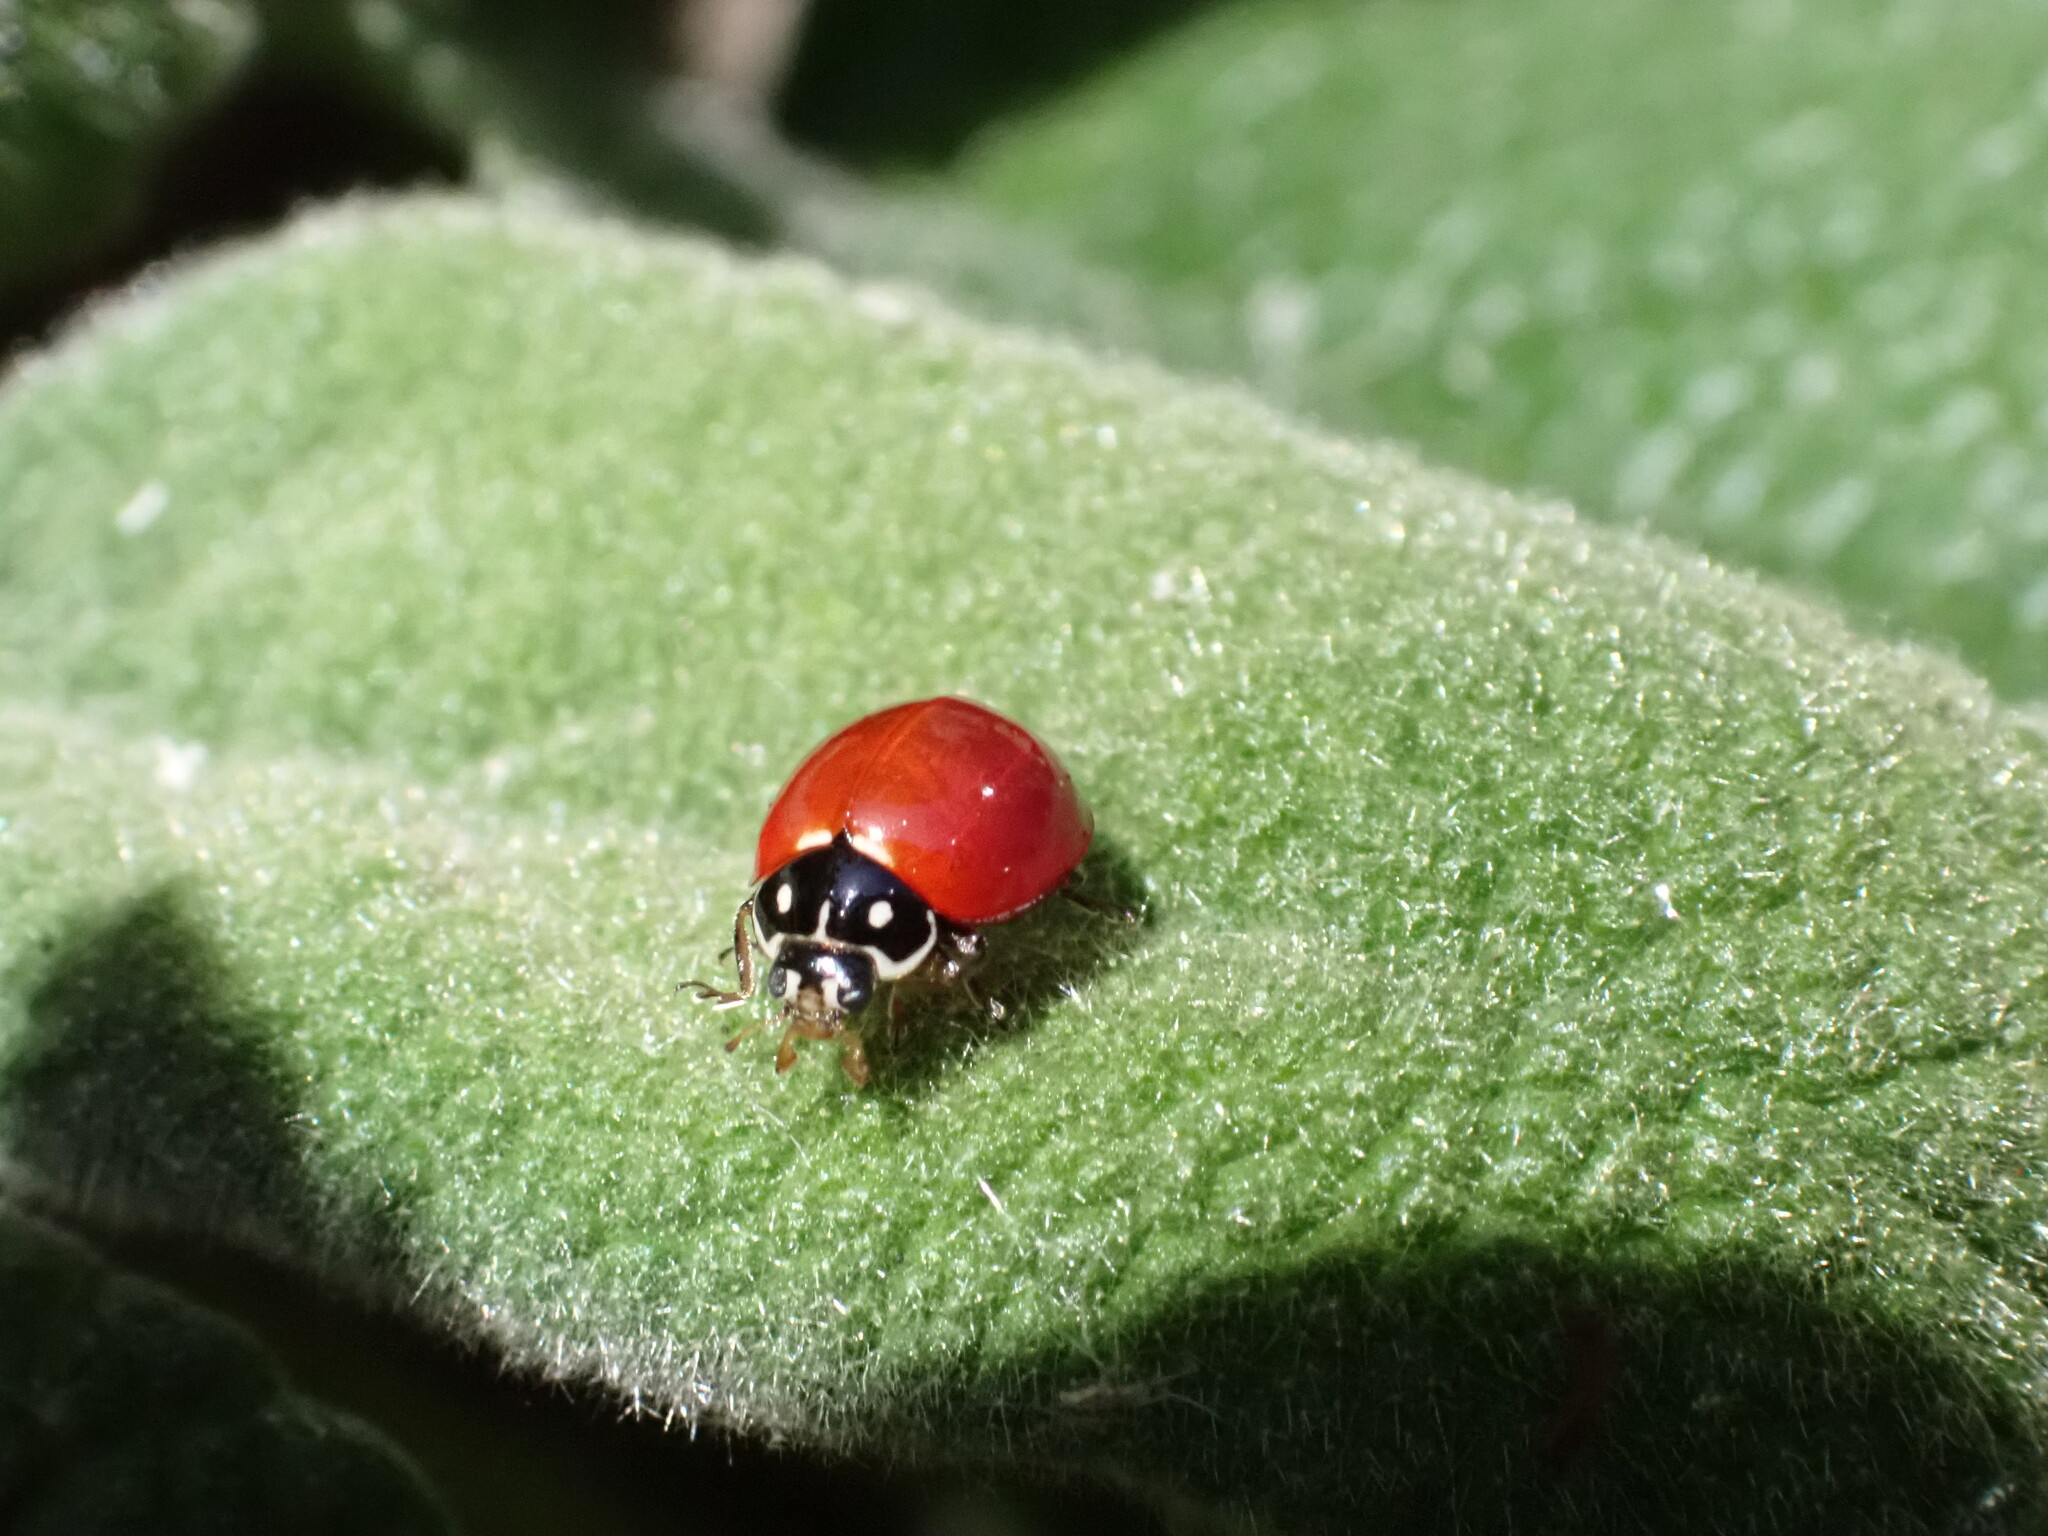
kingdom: Animalia
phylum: Arthropoda
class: Insecta
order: Coleoptera
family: Coccinellidae
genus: Cycloneda
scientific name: Cycloneda sanguinea
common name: Ladybird beetle
